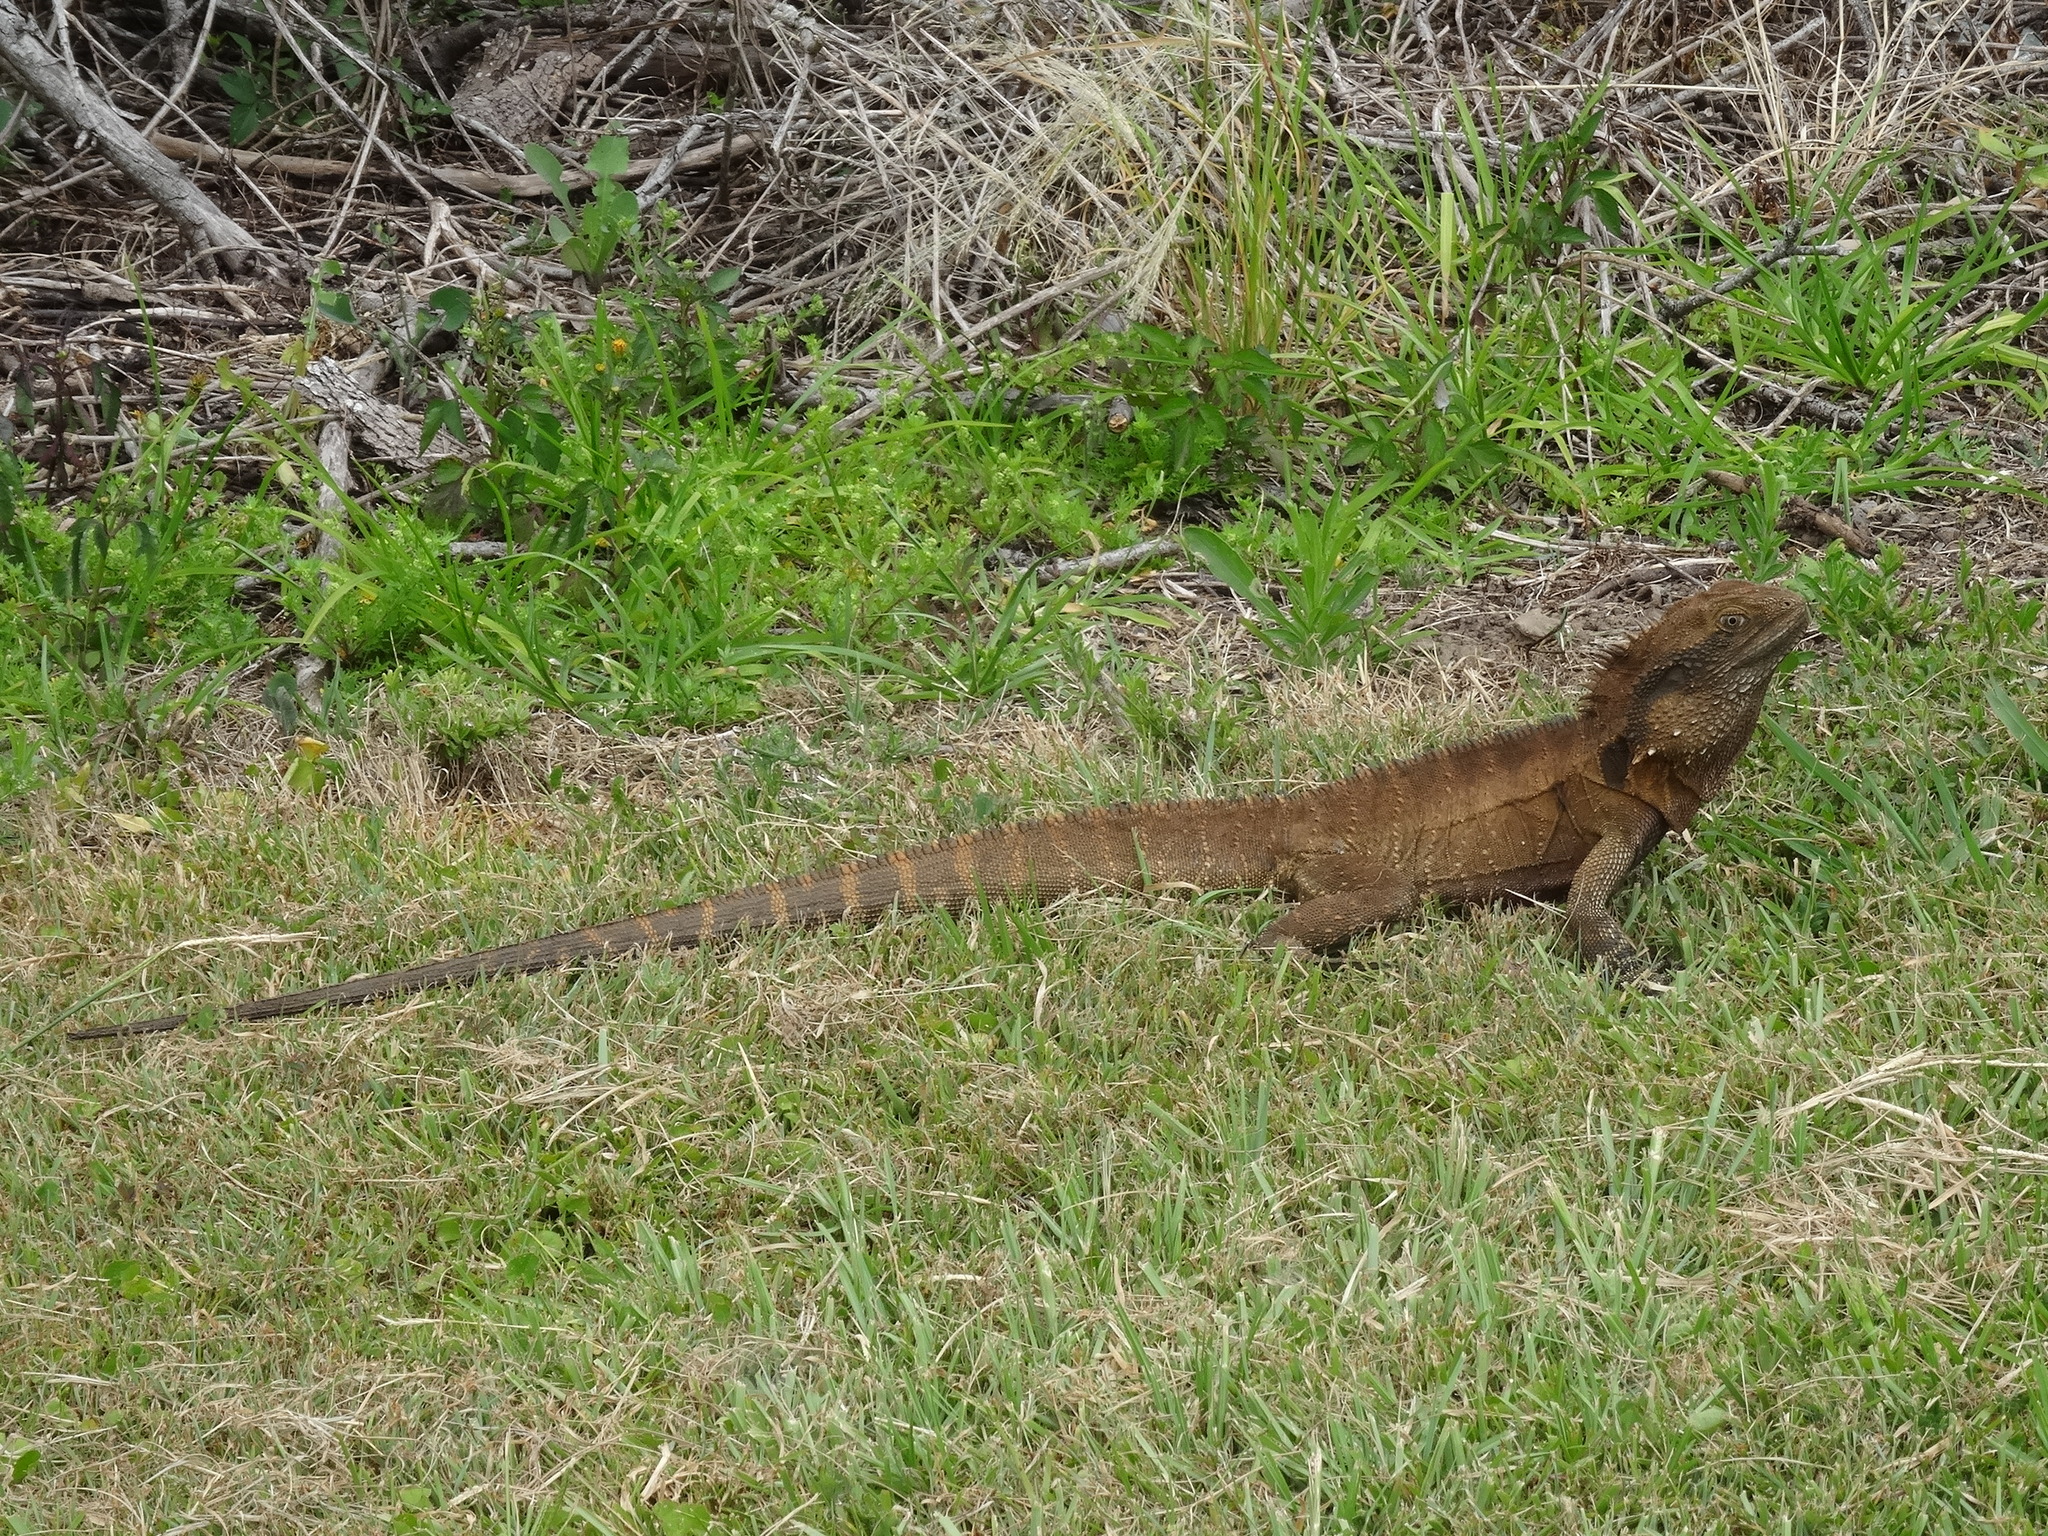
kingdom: Animalia
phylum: Chordata
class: Squamata
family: Agamidae
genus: Intellagama
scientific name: Intellagama lesueurii
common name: Eastern water dragon
